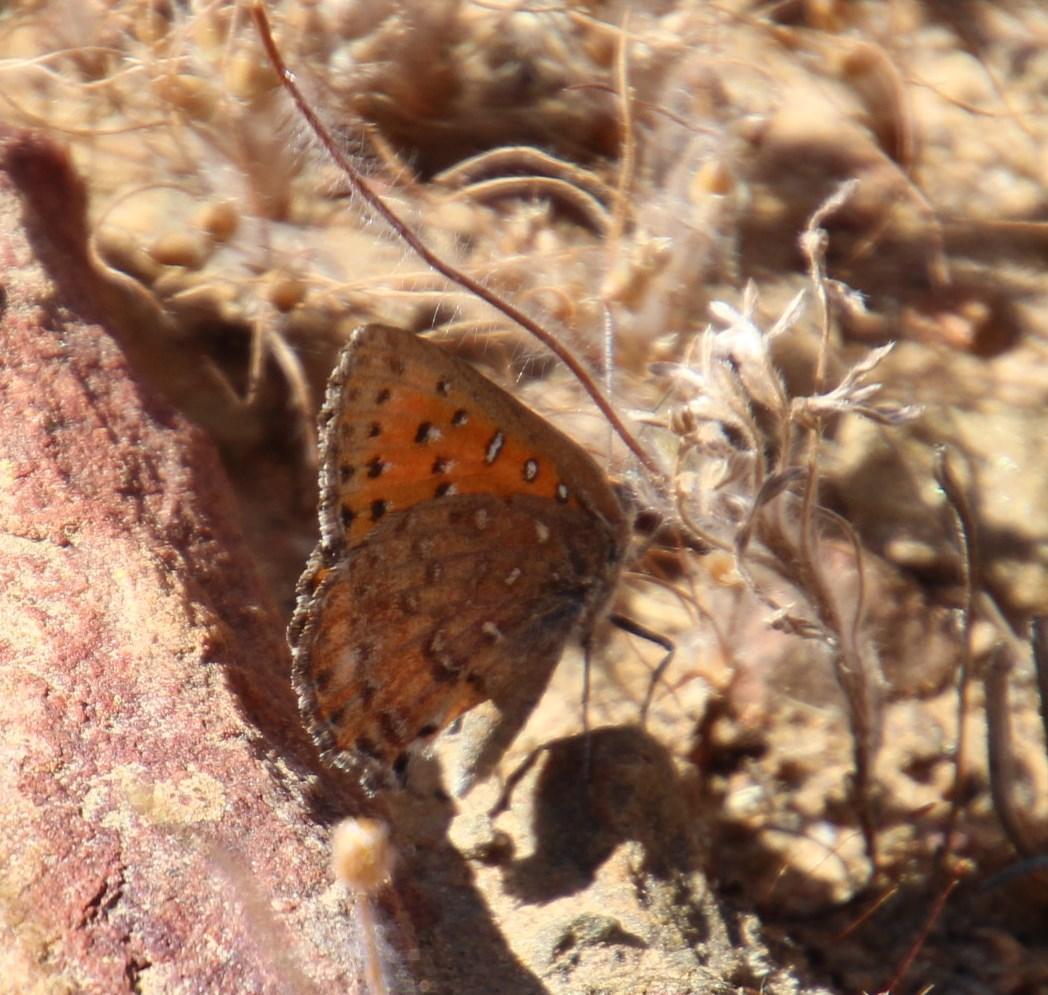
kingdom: Animalia
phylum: Arthropoda
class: Insecta
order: Lepidoptera
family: Lycaenidae
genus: Aloeides
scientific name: Aloeides pierus
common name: Dull copper
